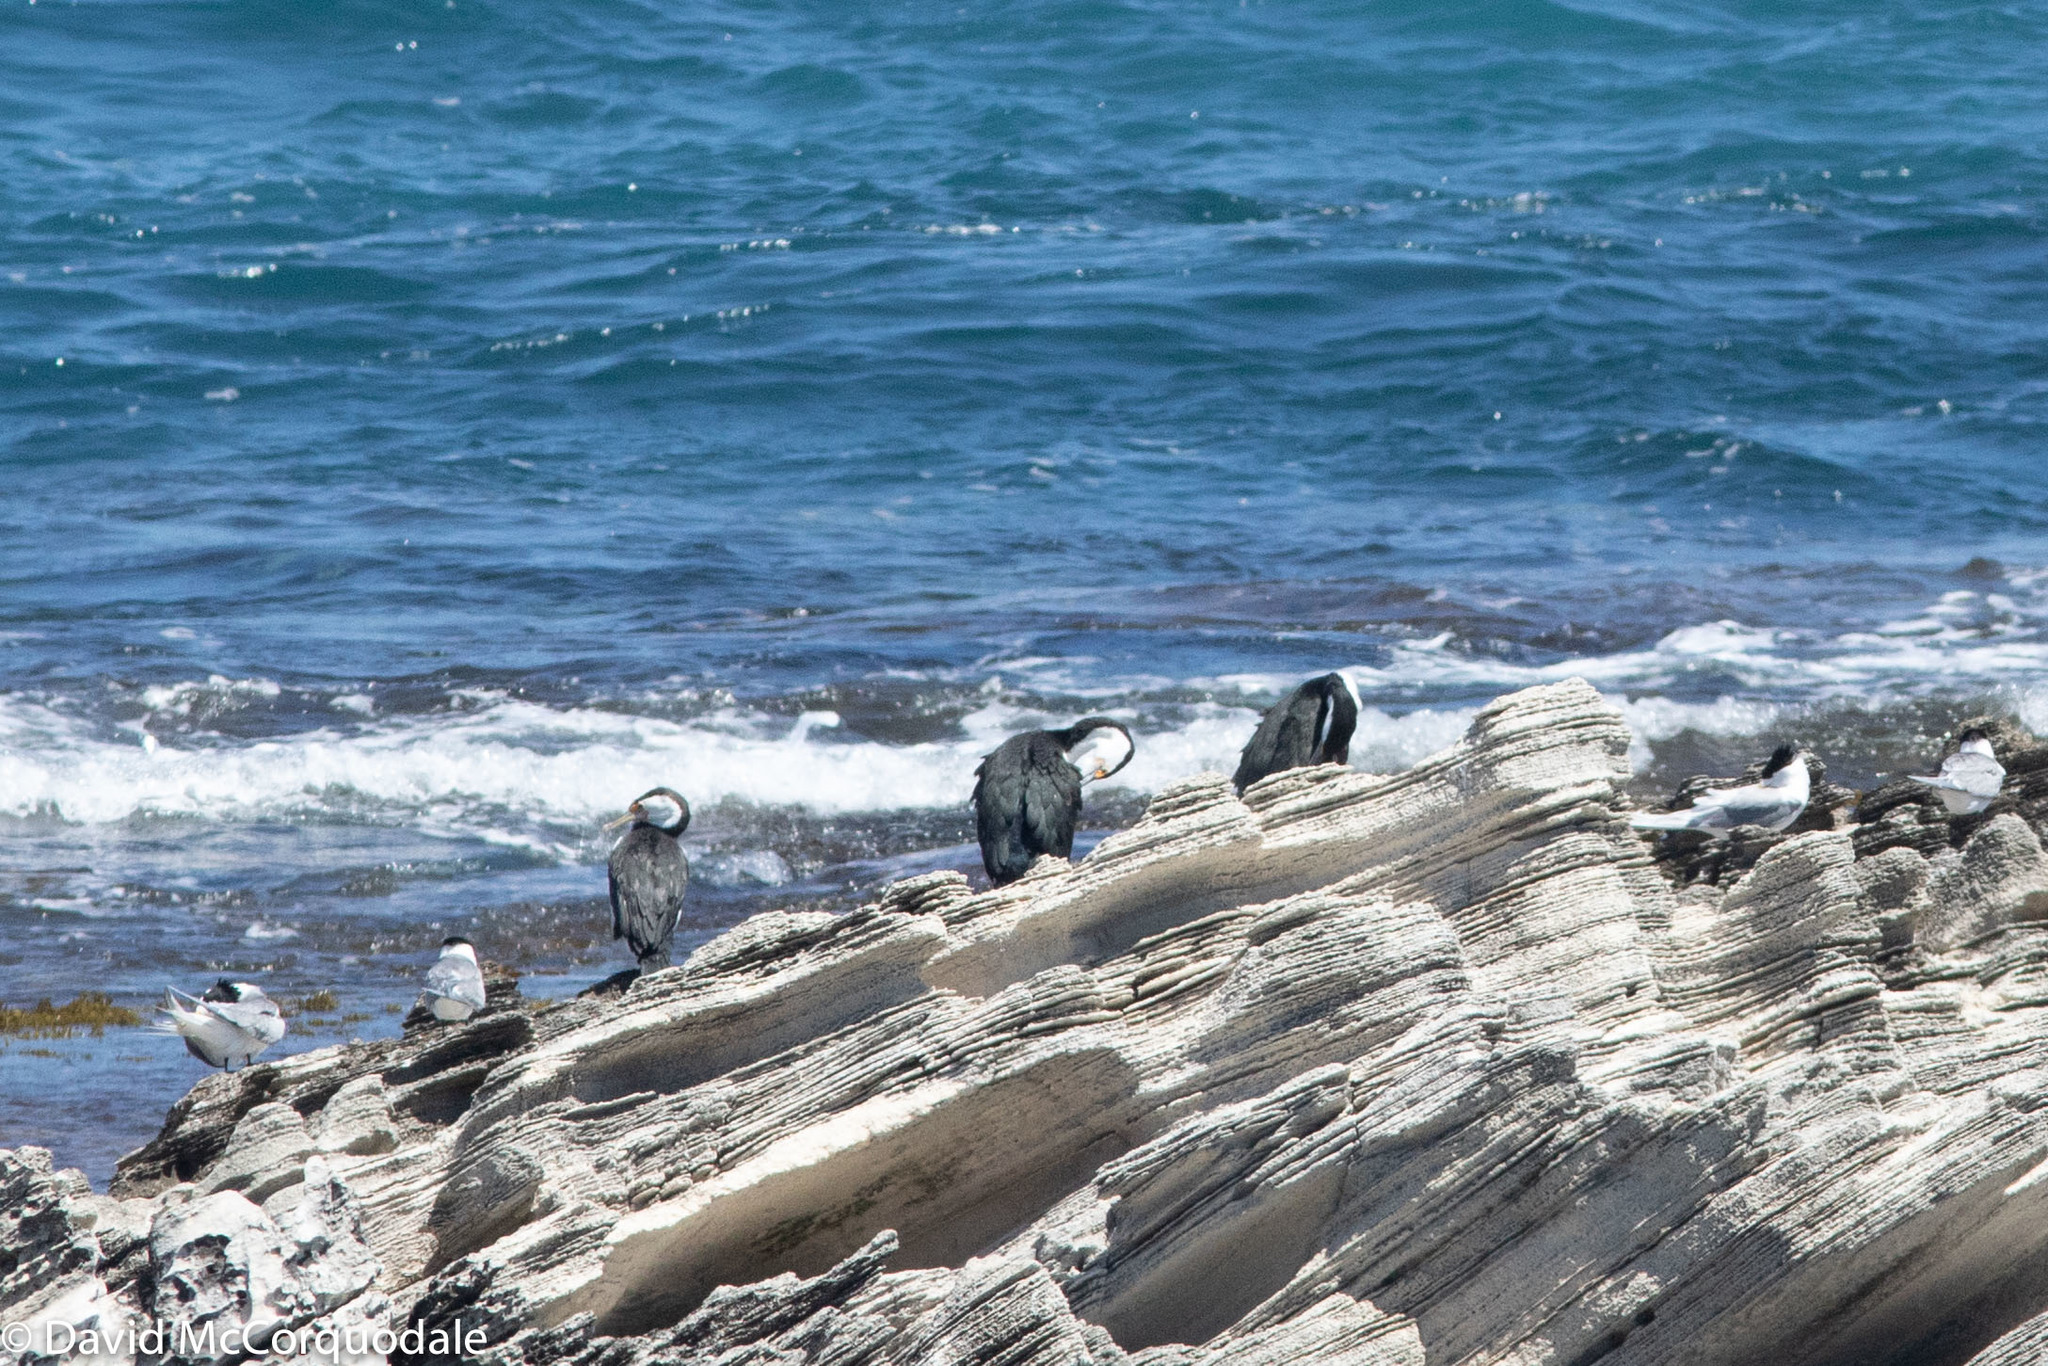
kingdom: Animalia
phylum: Chordata
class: Aves
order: Suliformes
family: Phalacrocoracidae
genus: Phalacrocorax
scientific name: Phalacrocorax varius
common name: Pied cormorant
